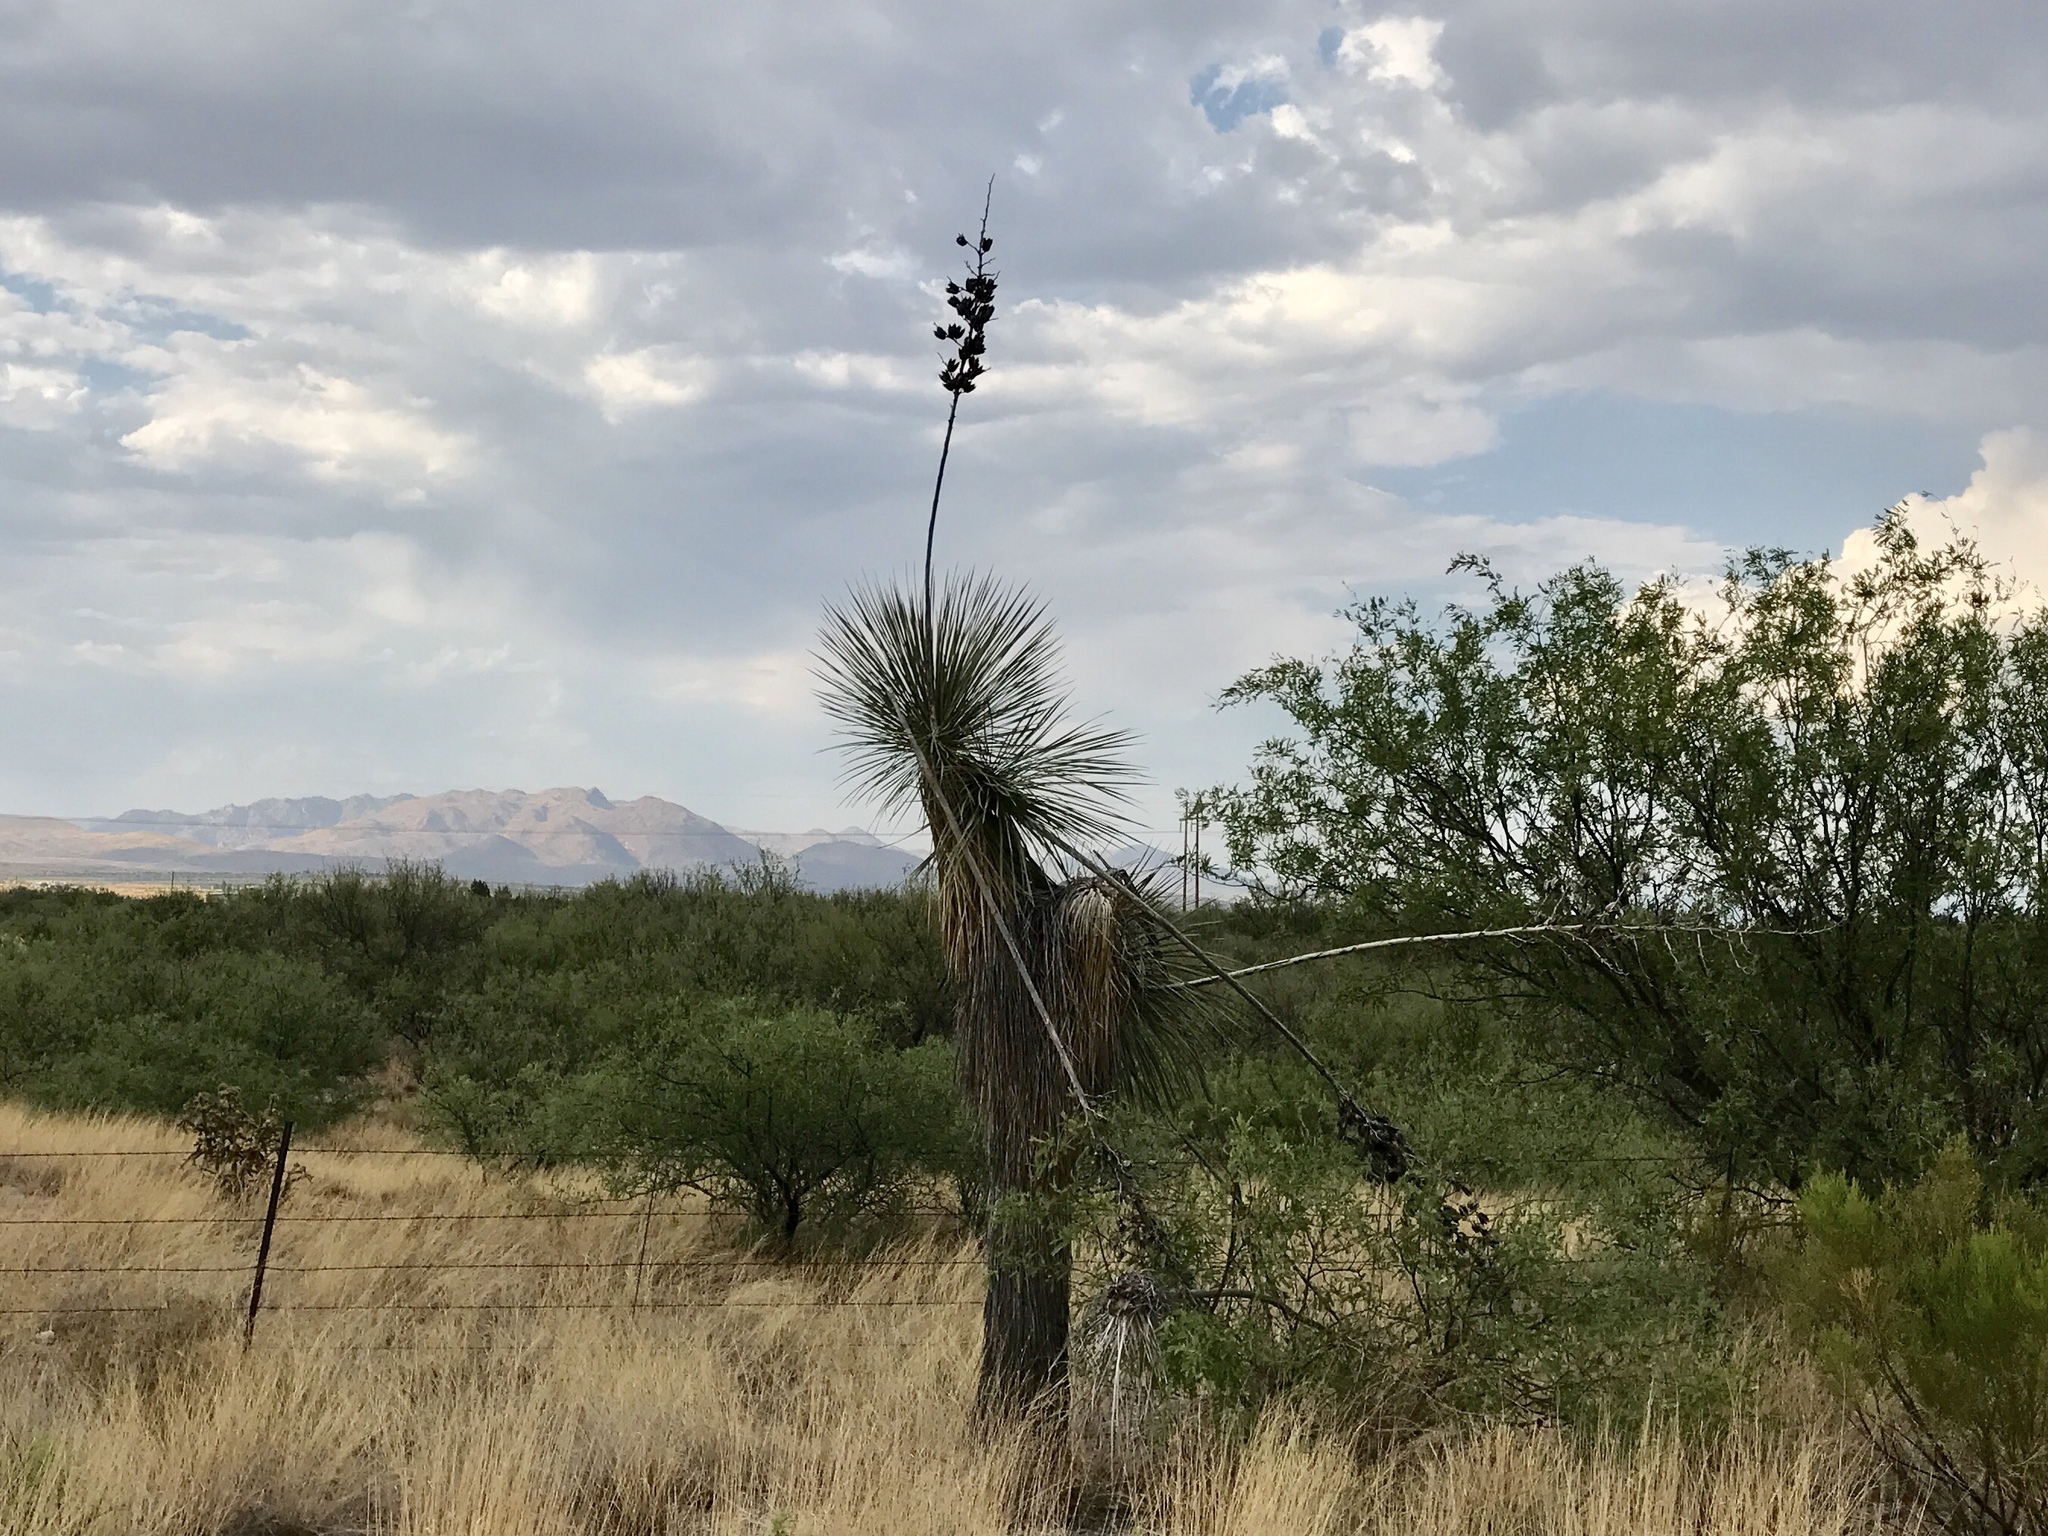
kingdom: Plantae
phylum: Tracheophyta
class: Liliopsida
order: Asparagales
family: Asparagaceae
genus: Yucca
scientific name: Yucca elata
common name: Palmella
